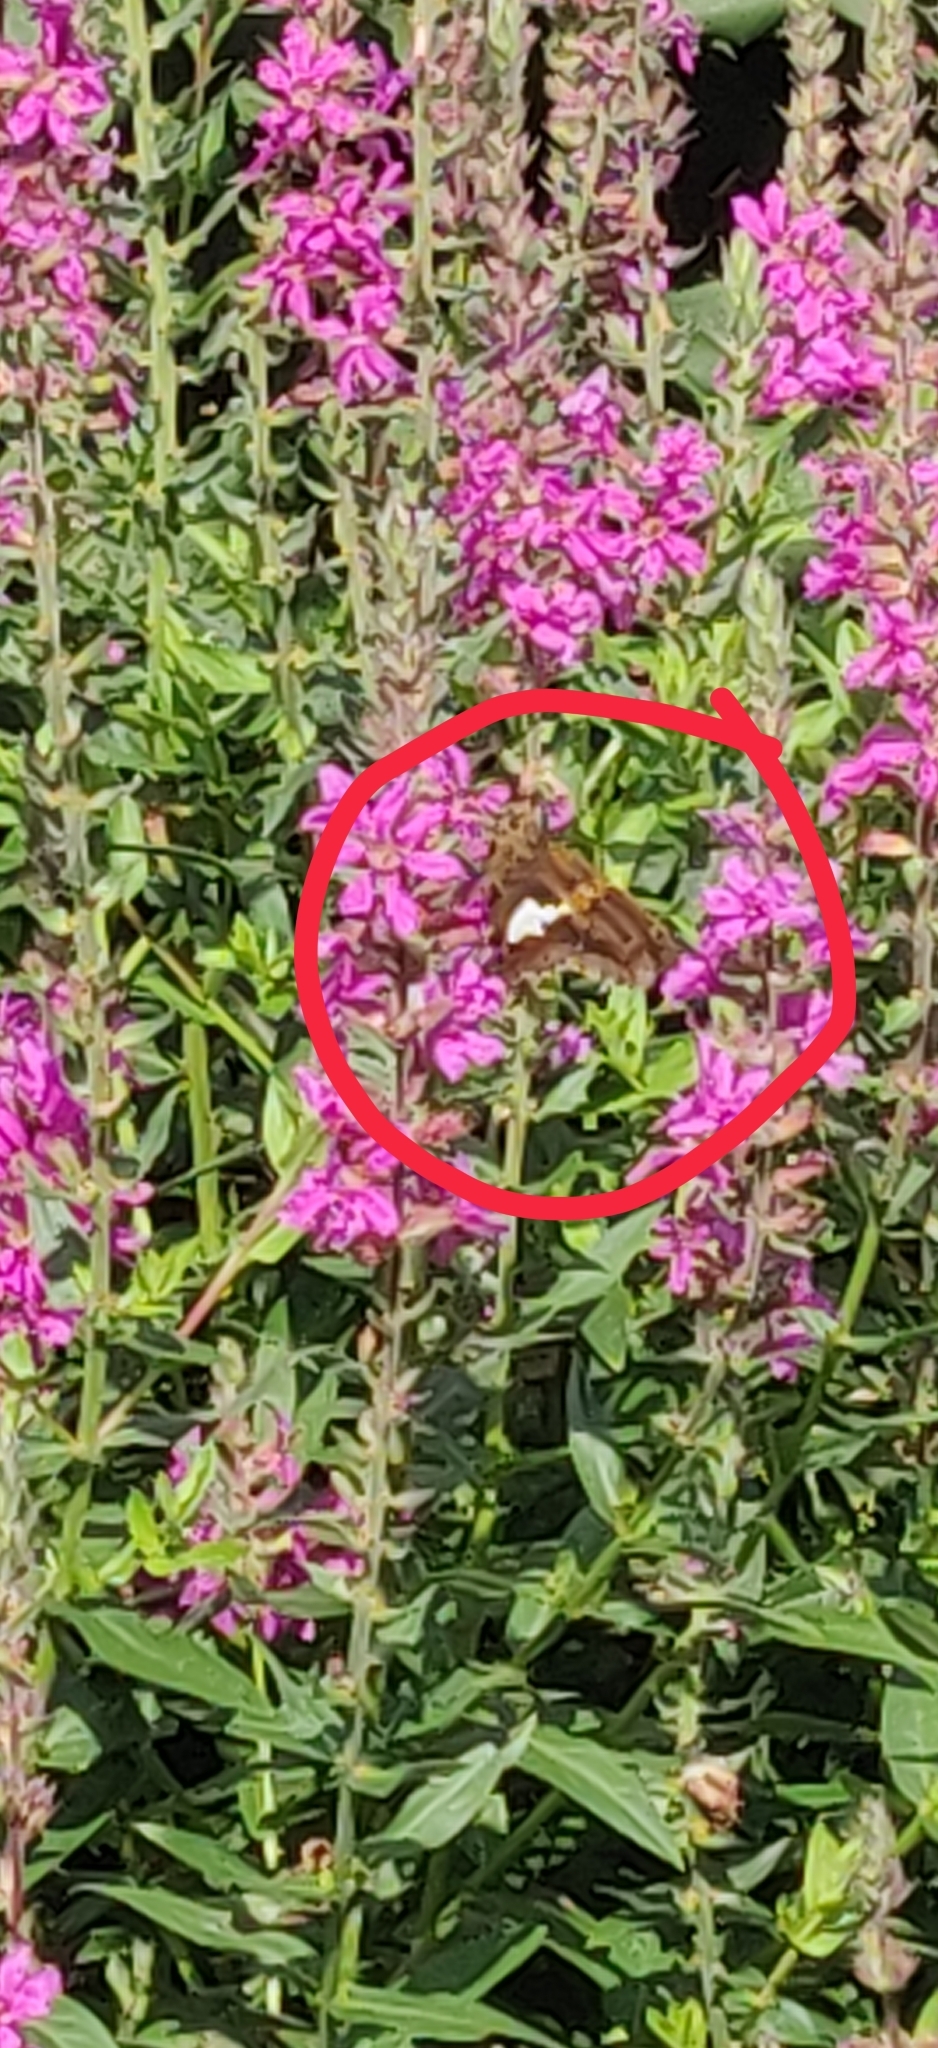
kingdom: Animalia
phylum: Arthropoda
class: Insecta
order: Lepidoptera
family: Hesperiidae
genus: Epargyreus
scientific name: Epargyreus clarus
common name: Silver-spotted skipper
